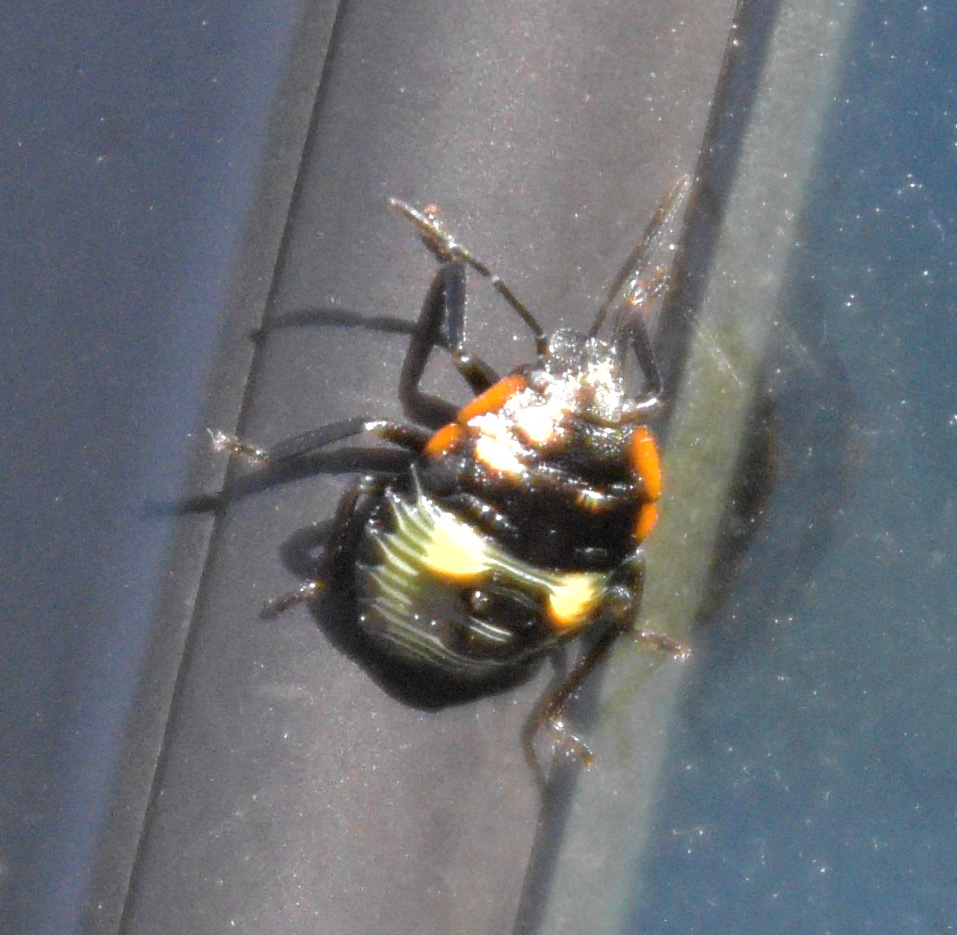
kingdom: Animalia
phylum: Arthropoda
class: Insecta
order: Hemiptera
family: Pentatomidae
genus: Chinavia
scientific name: Chinavia hilaris
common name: Green stink bug
